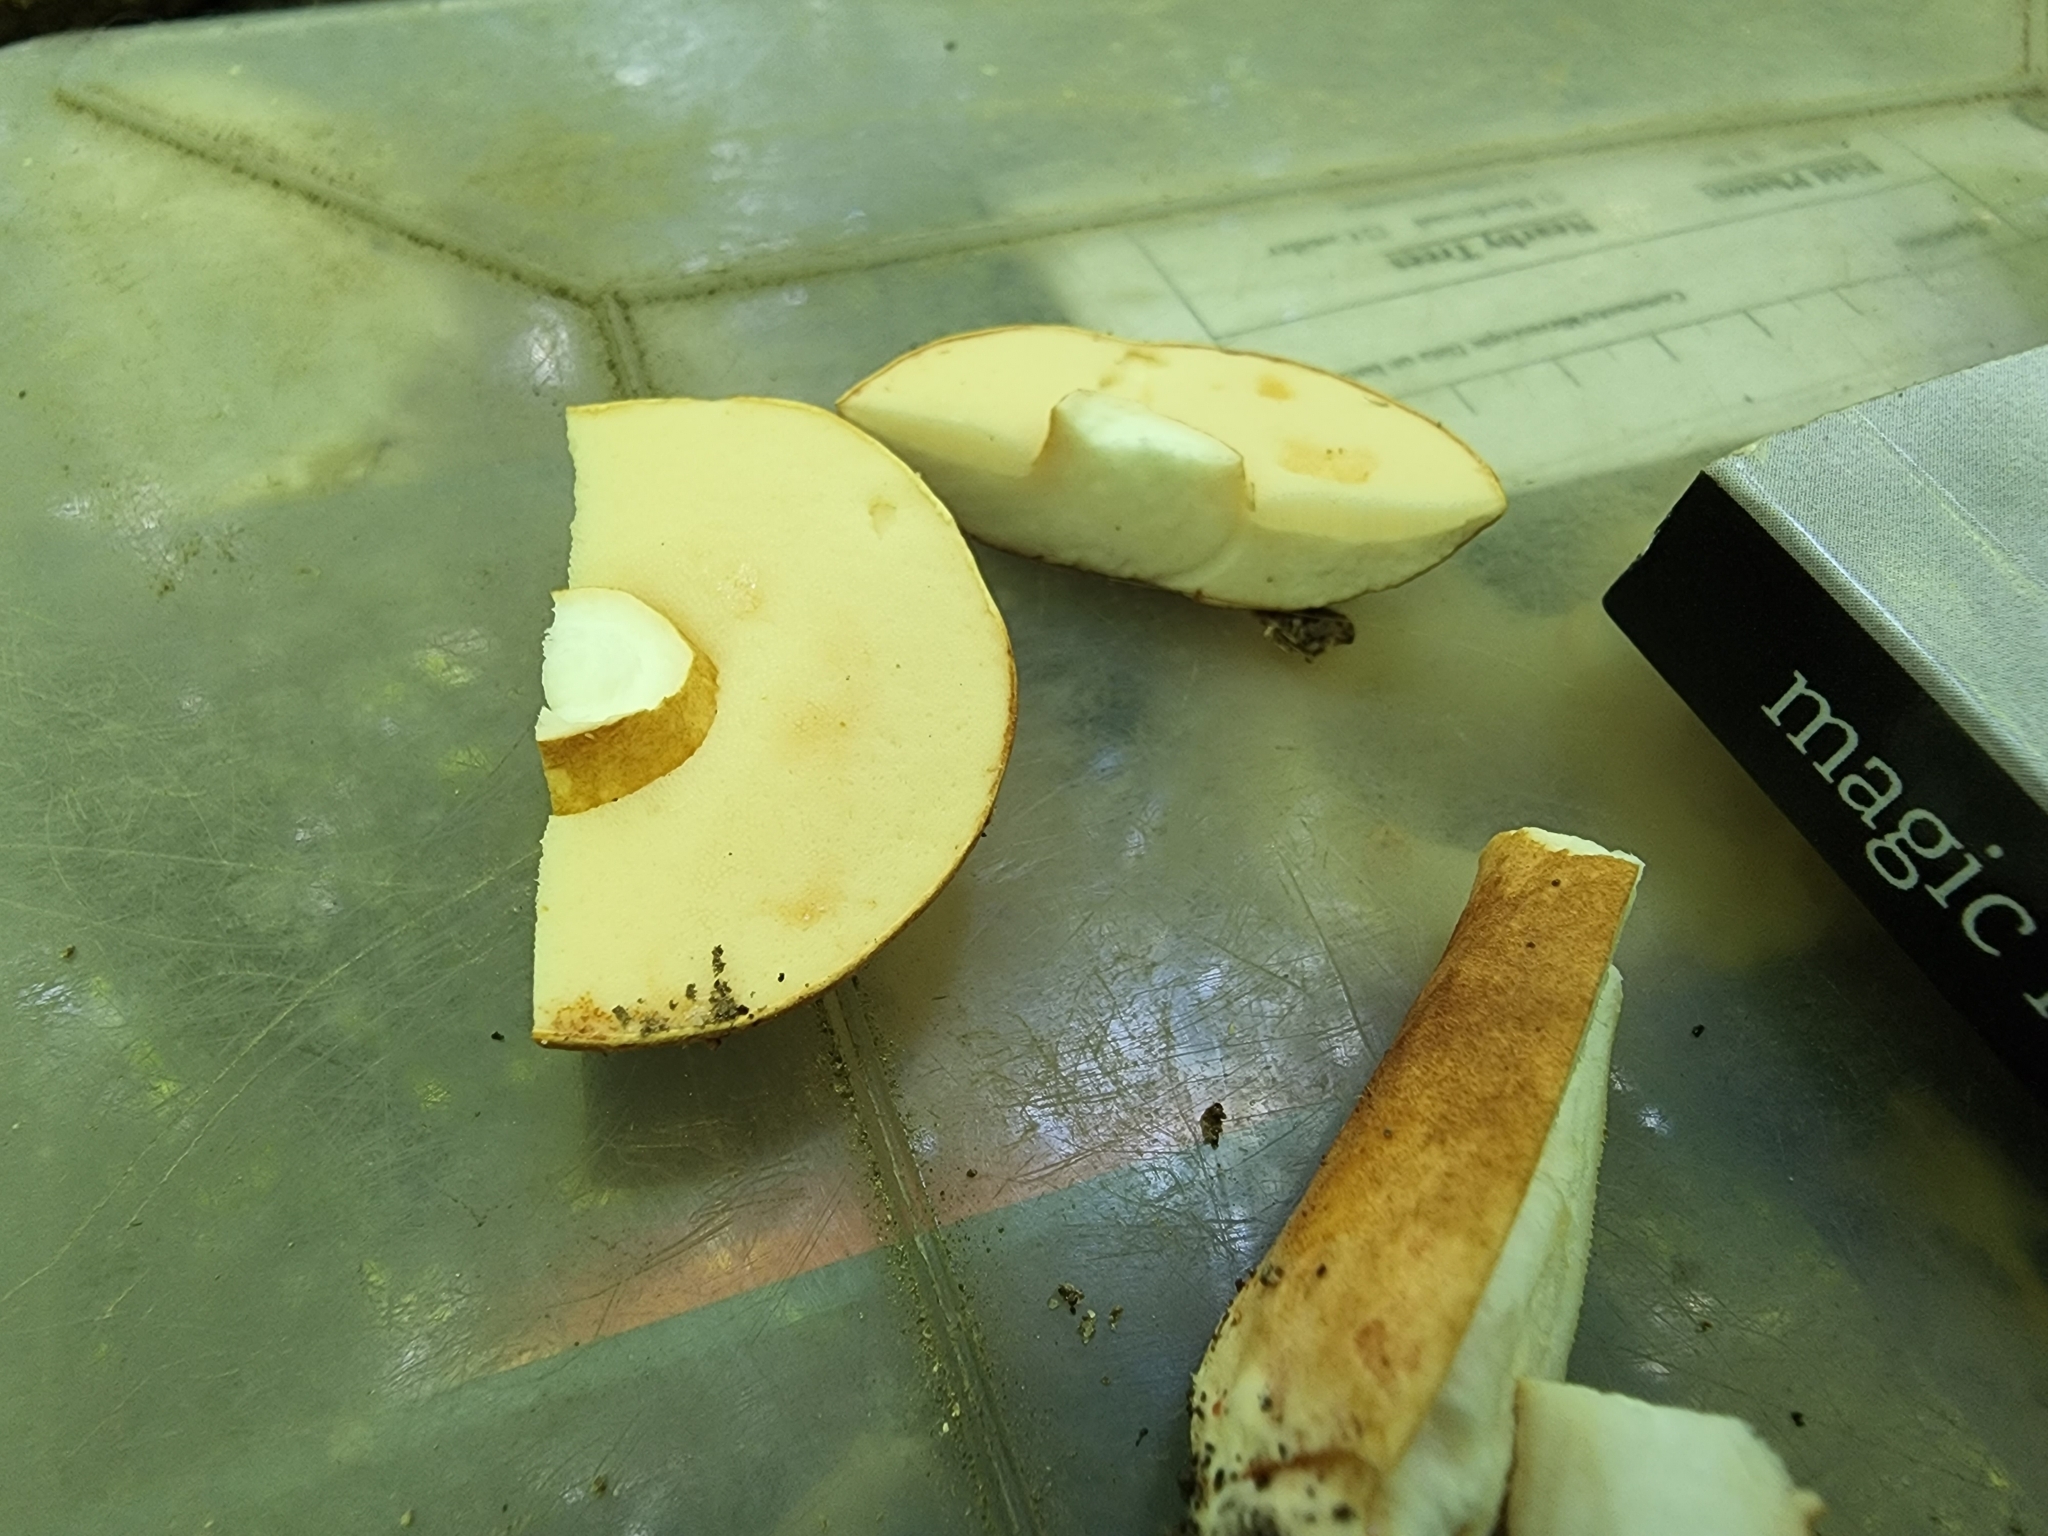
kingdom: Fungi
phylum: Basidiomycota
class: Agaricomycetes
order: Boletales
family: Gyroporaceae
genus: Gyroporus
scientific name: Gyroporus castaneus
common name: Chestnut bolete
